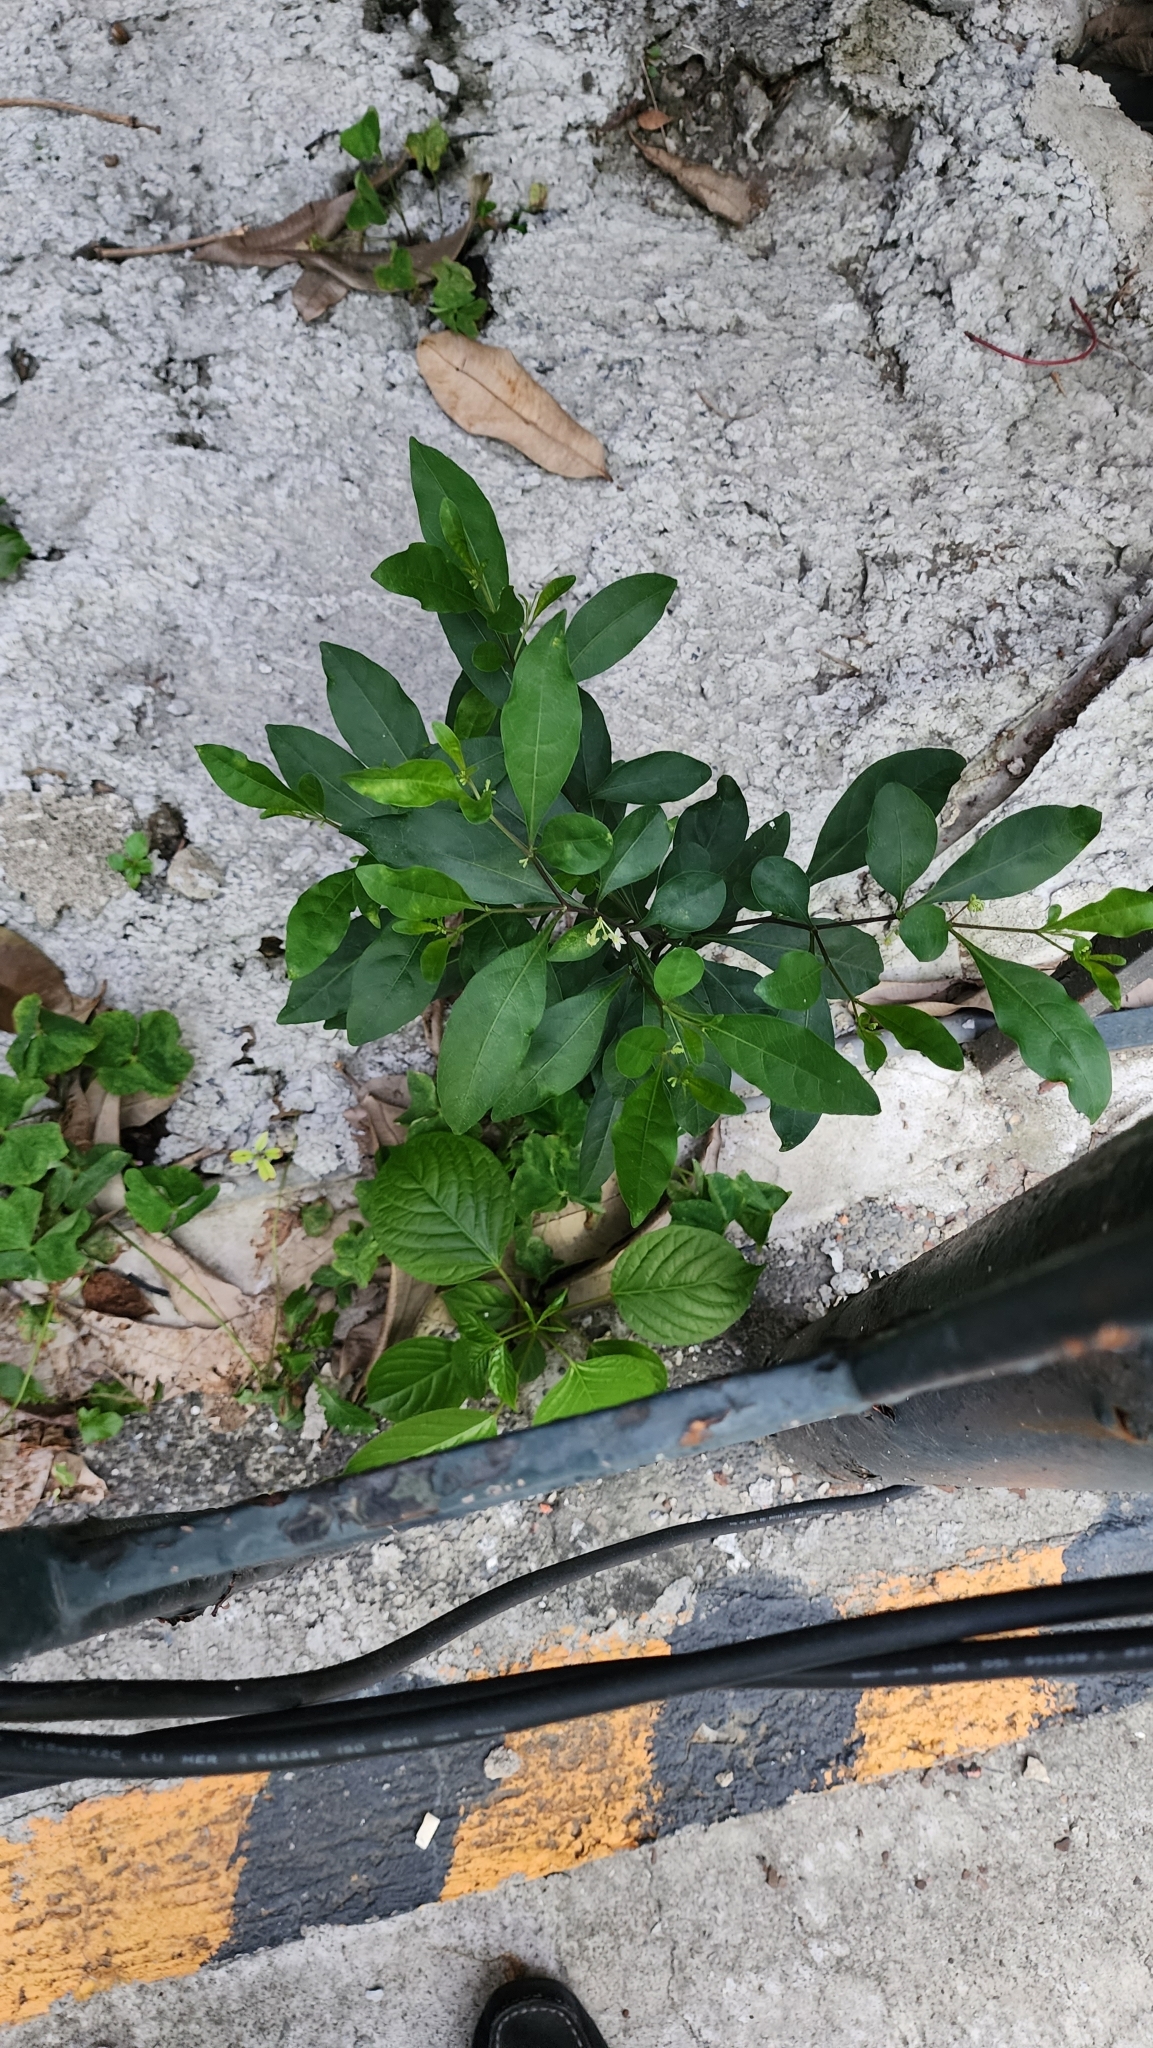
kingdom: Plantae
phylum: Tracheophyta
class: Magnoliopsida
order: Solanales
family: Solanaceae
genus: Solanum
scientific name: Solanum diphyllum
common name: Twoleaf nightshade
